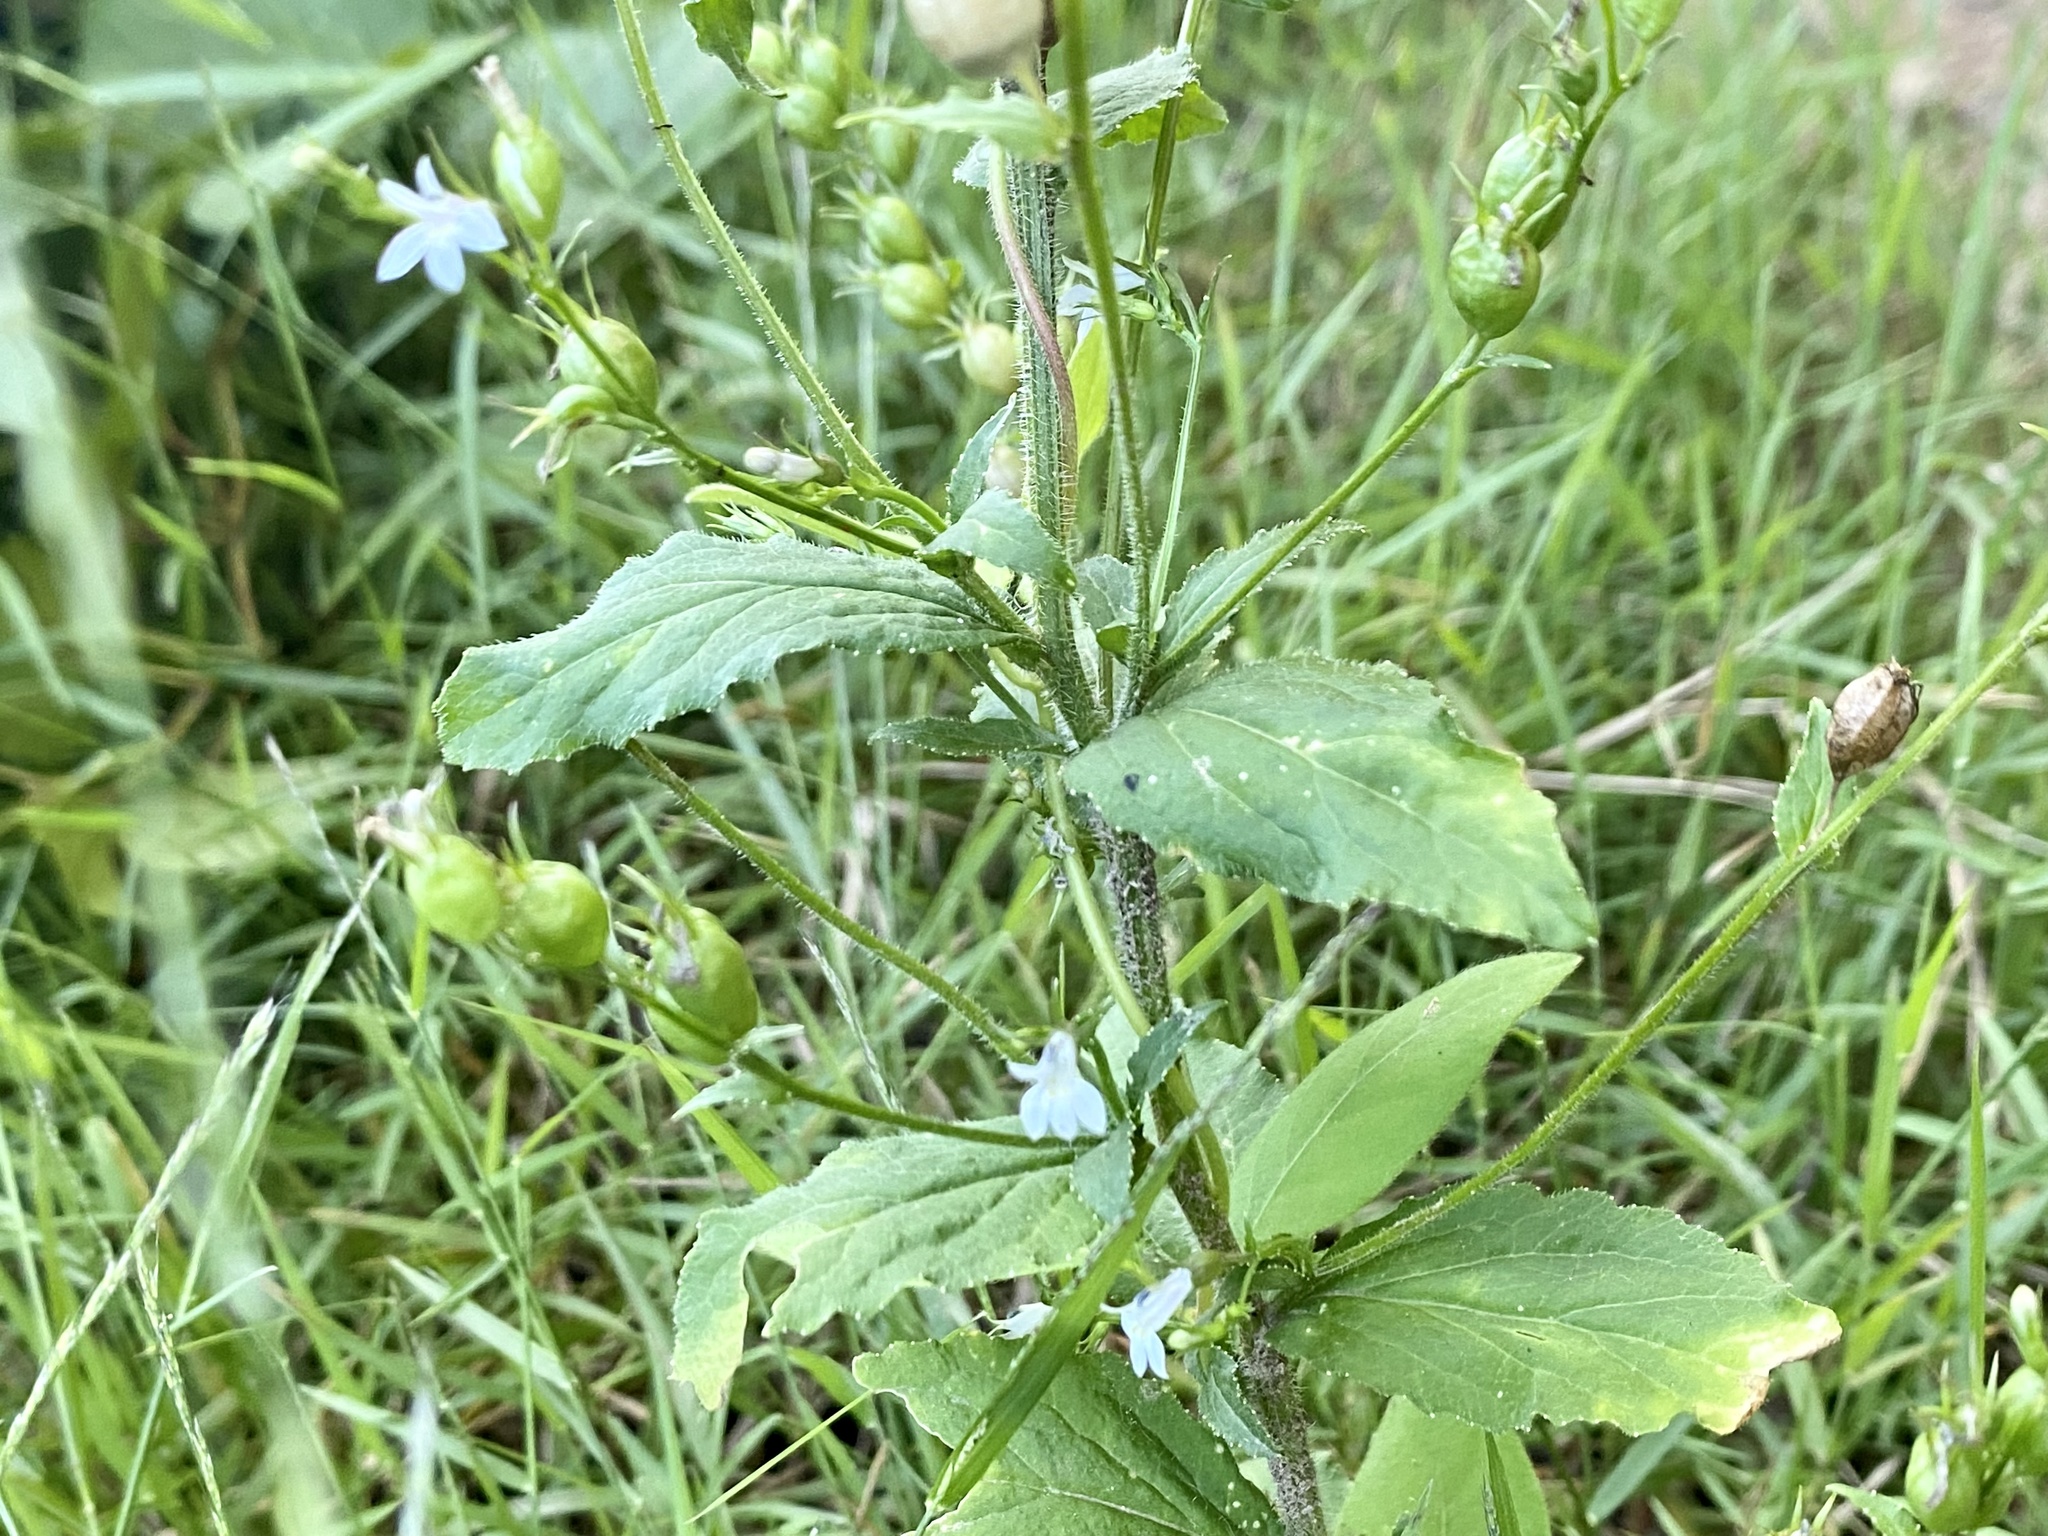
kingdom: Plantae
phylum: Tracheophyta
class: Magnoliopsida
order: Asterales
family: Campanulaceae
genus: Lobelia
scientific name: Lobelia inflata
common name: Indian tobacco
